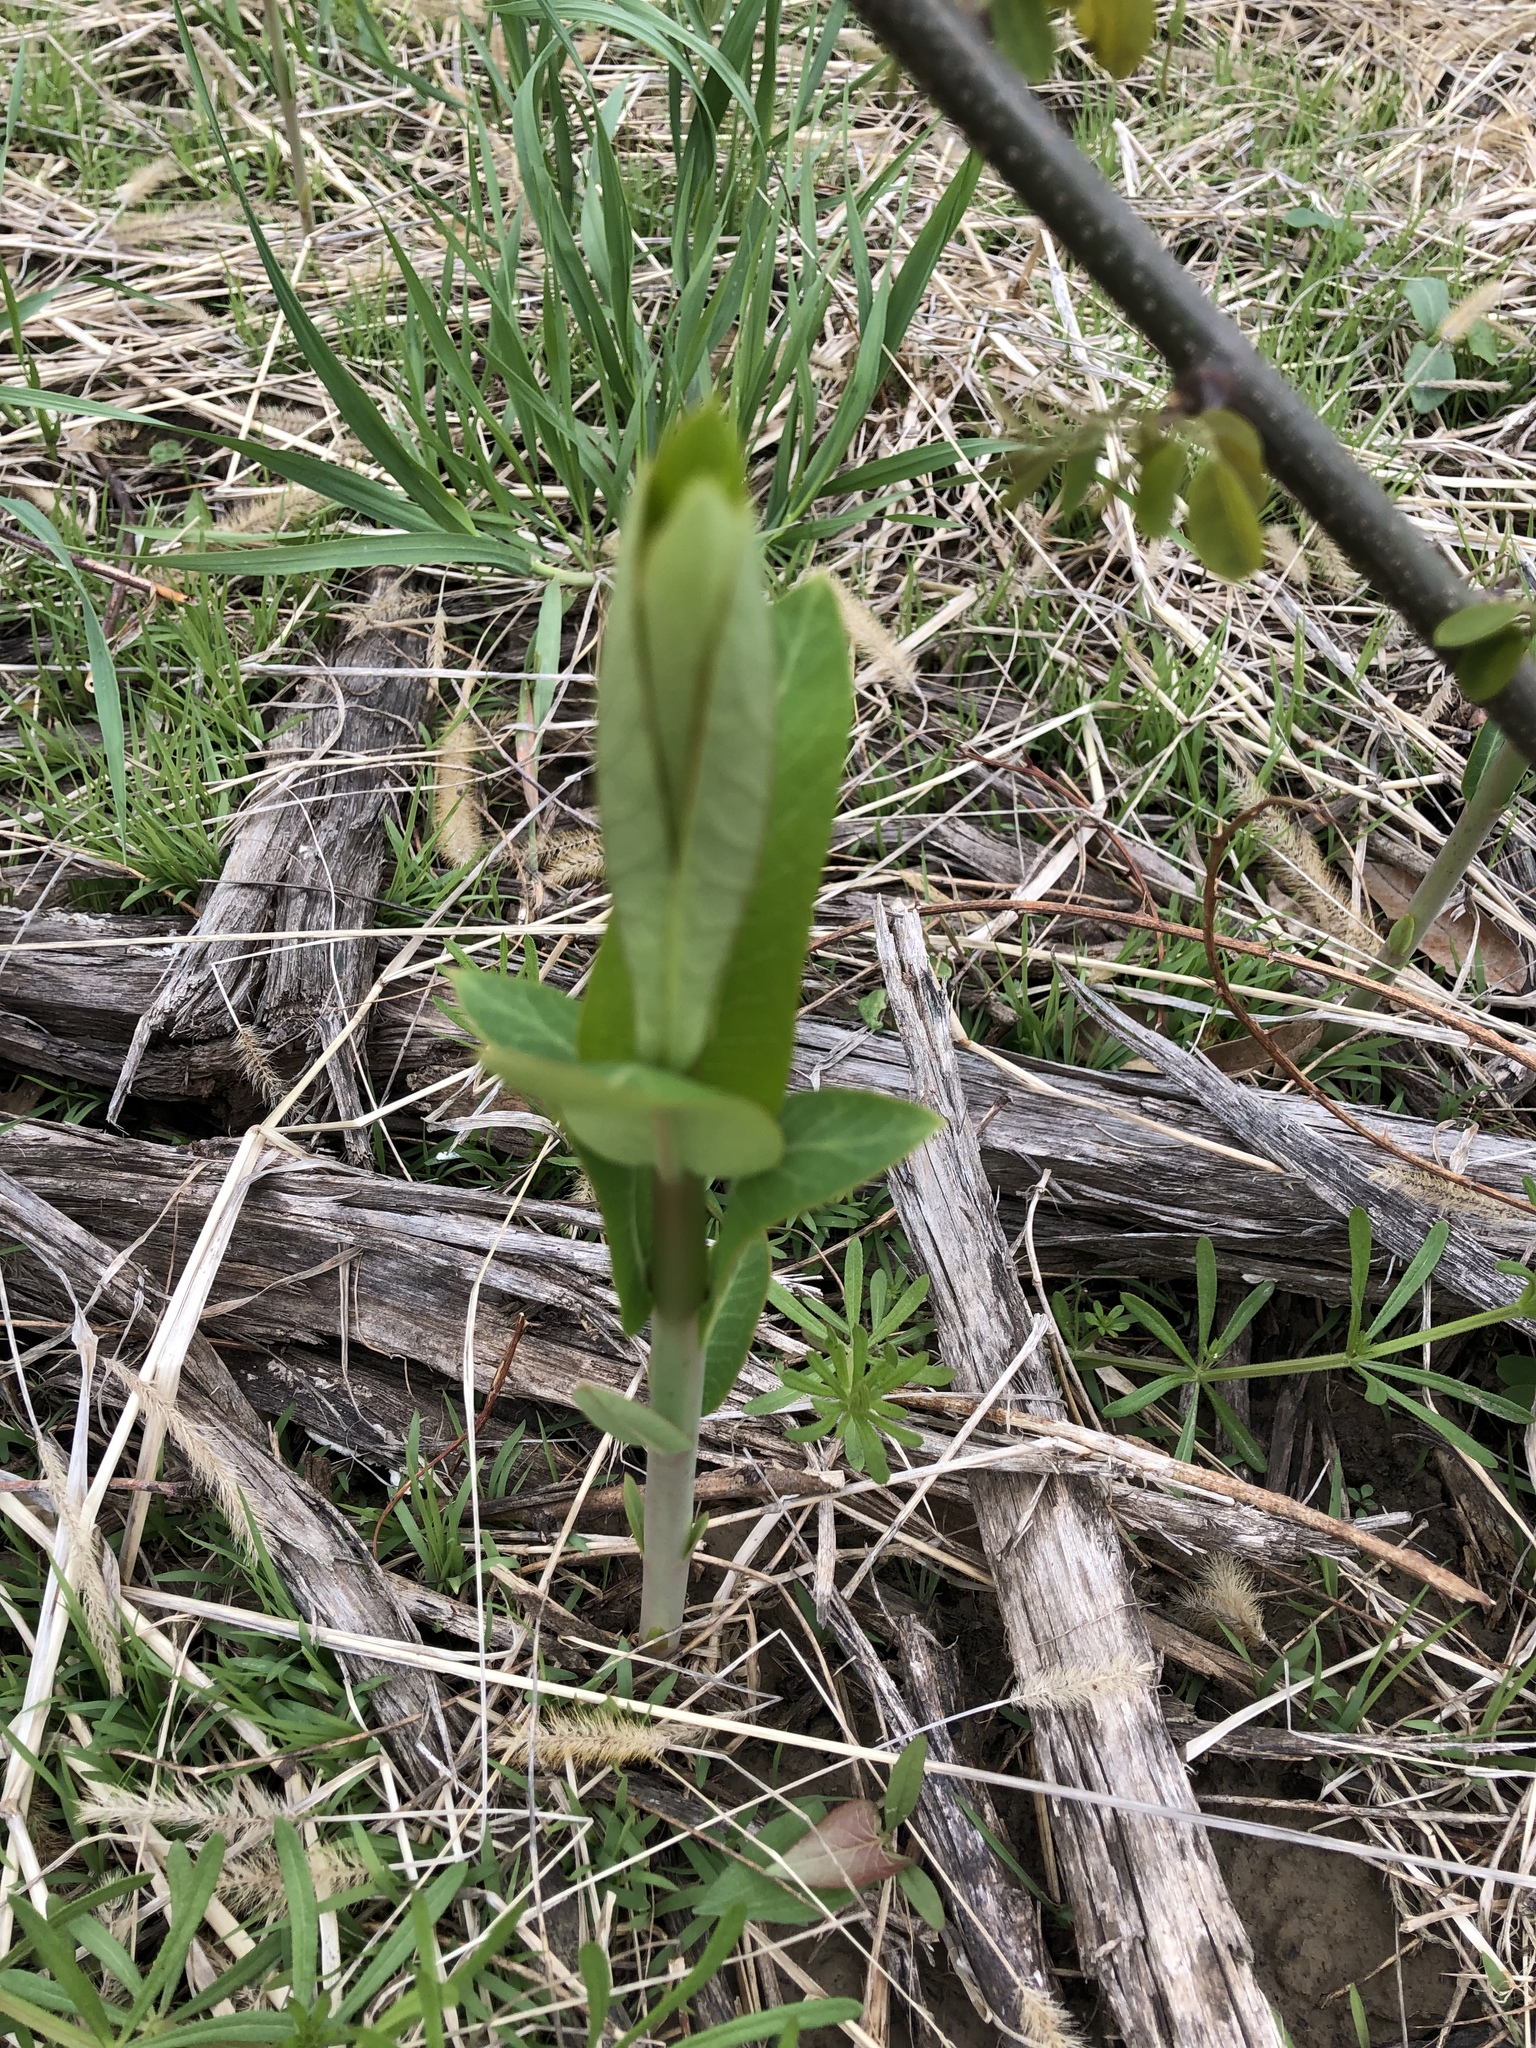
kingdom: Plantae
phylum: Tracheophyta
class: Magnoliopsida
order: Gentianales
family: Apocynaceae
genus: Asclepias
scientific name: Asclepias syriaca
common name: Common milkweed
